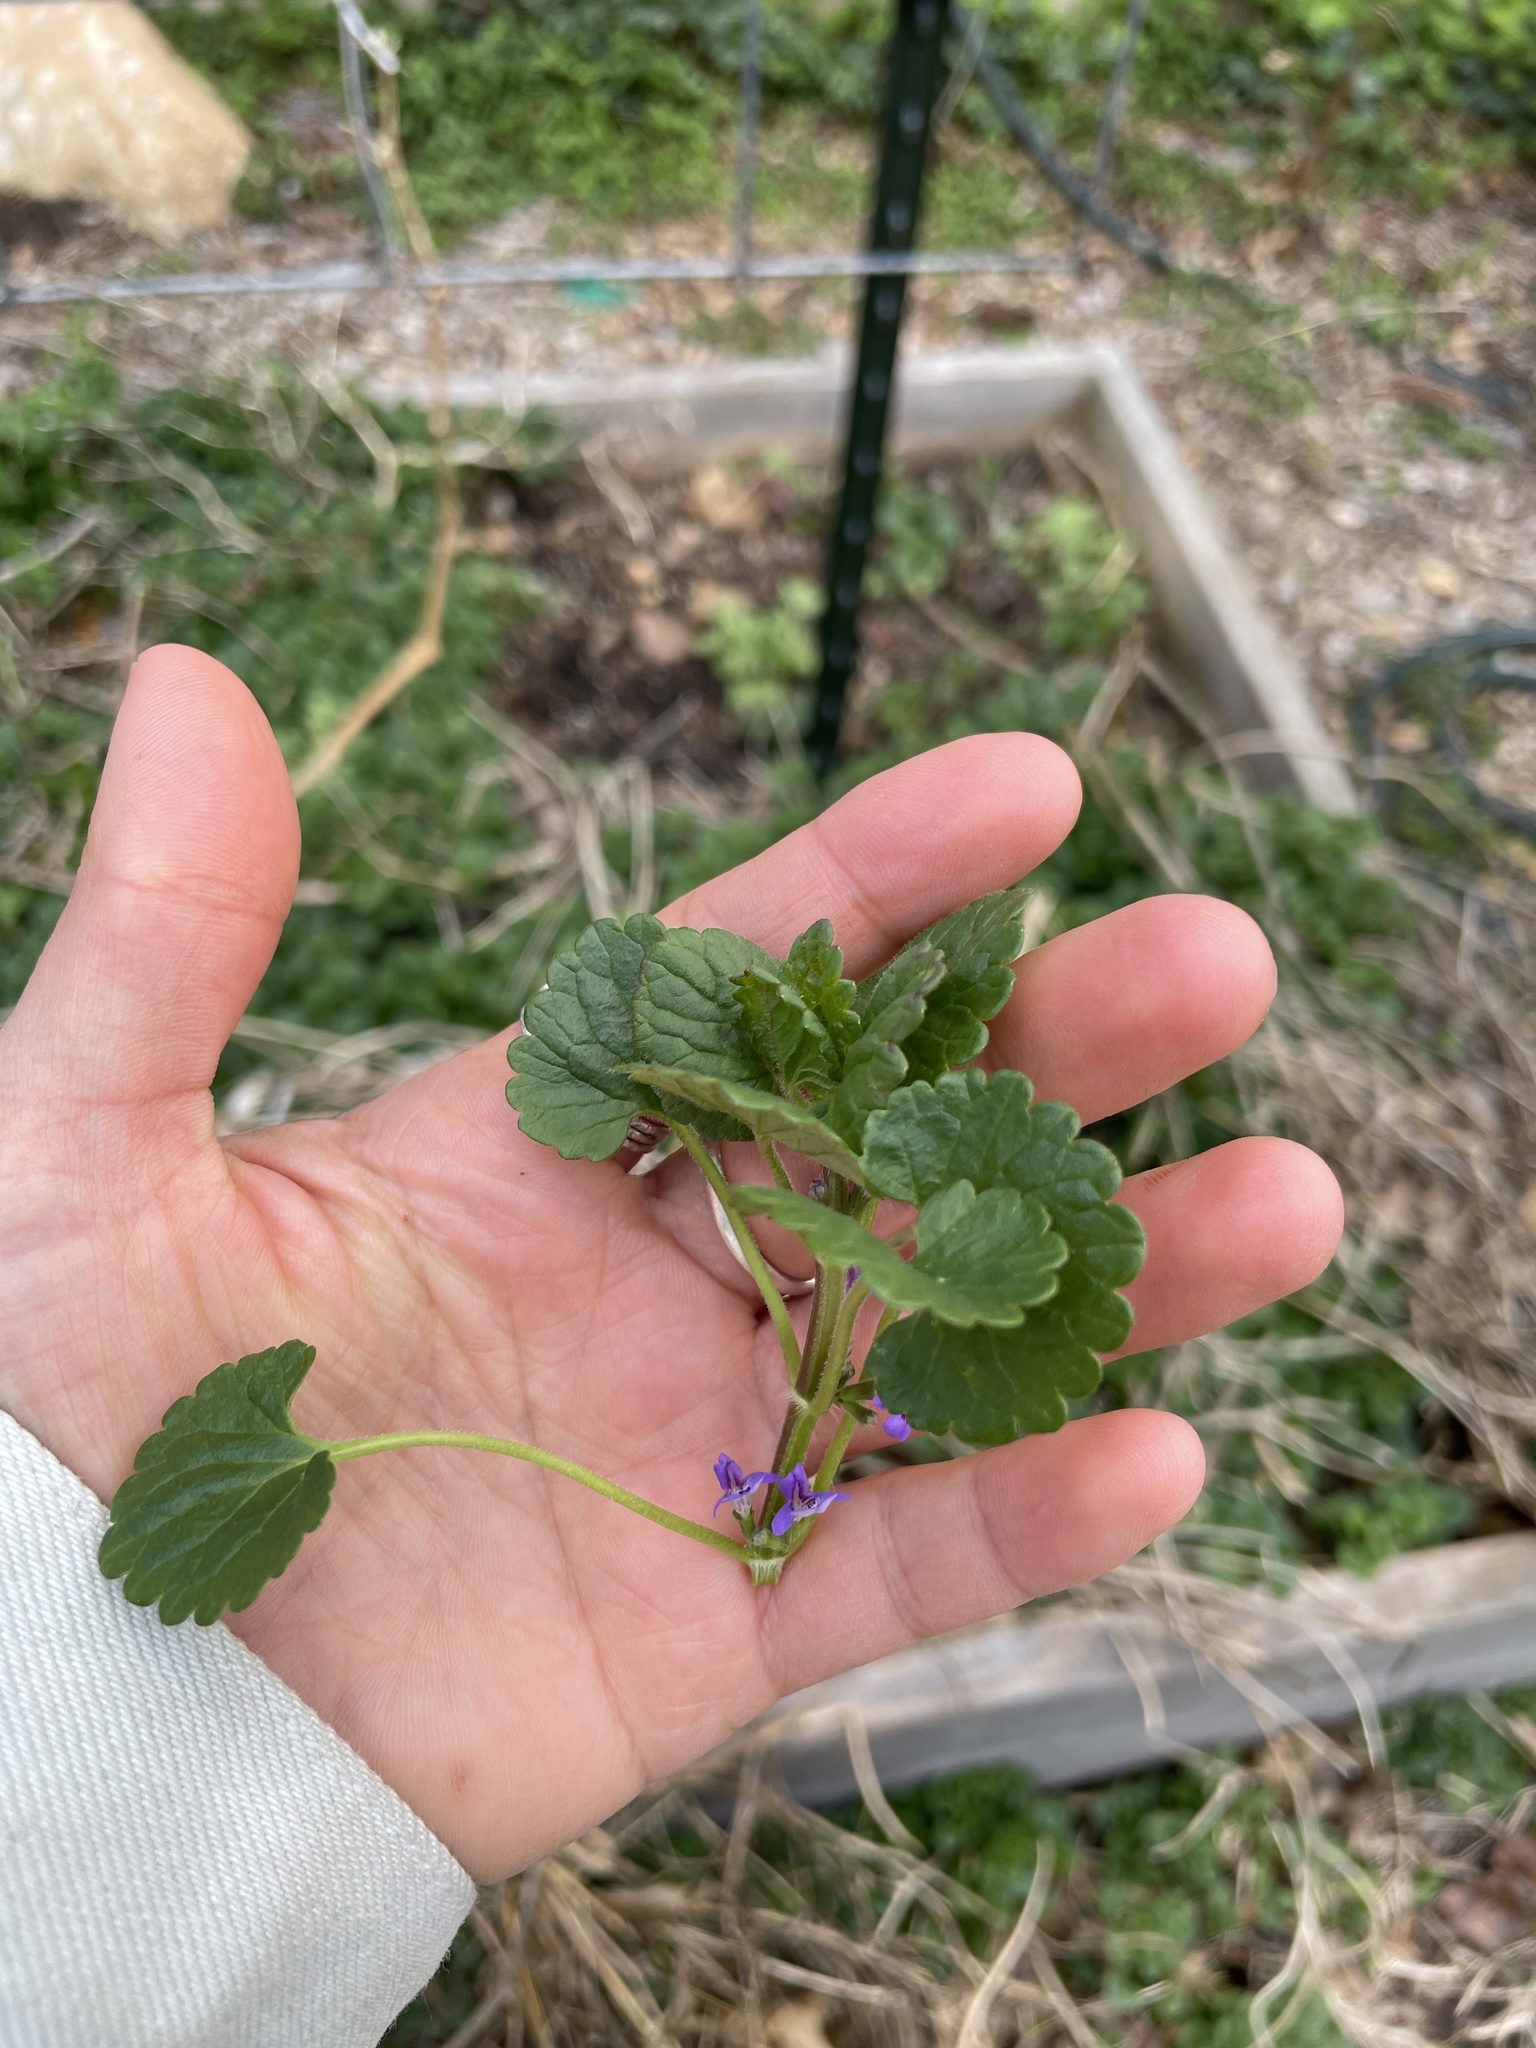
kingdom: Plantae
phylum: Tracheophyta
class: Magnoliopsida
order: Lamiales
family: Lamiaceae
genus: Glechoma
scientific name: Glechoma hederacea
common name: Ground ivy
